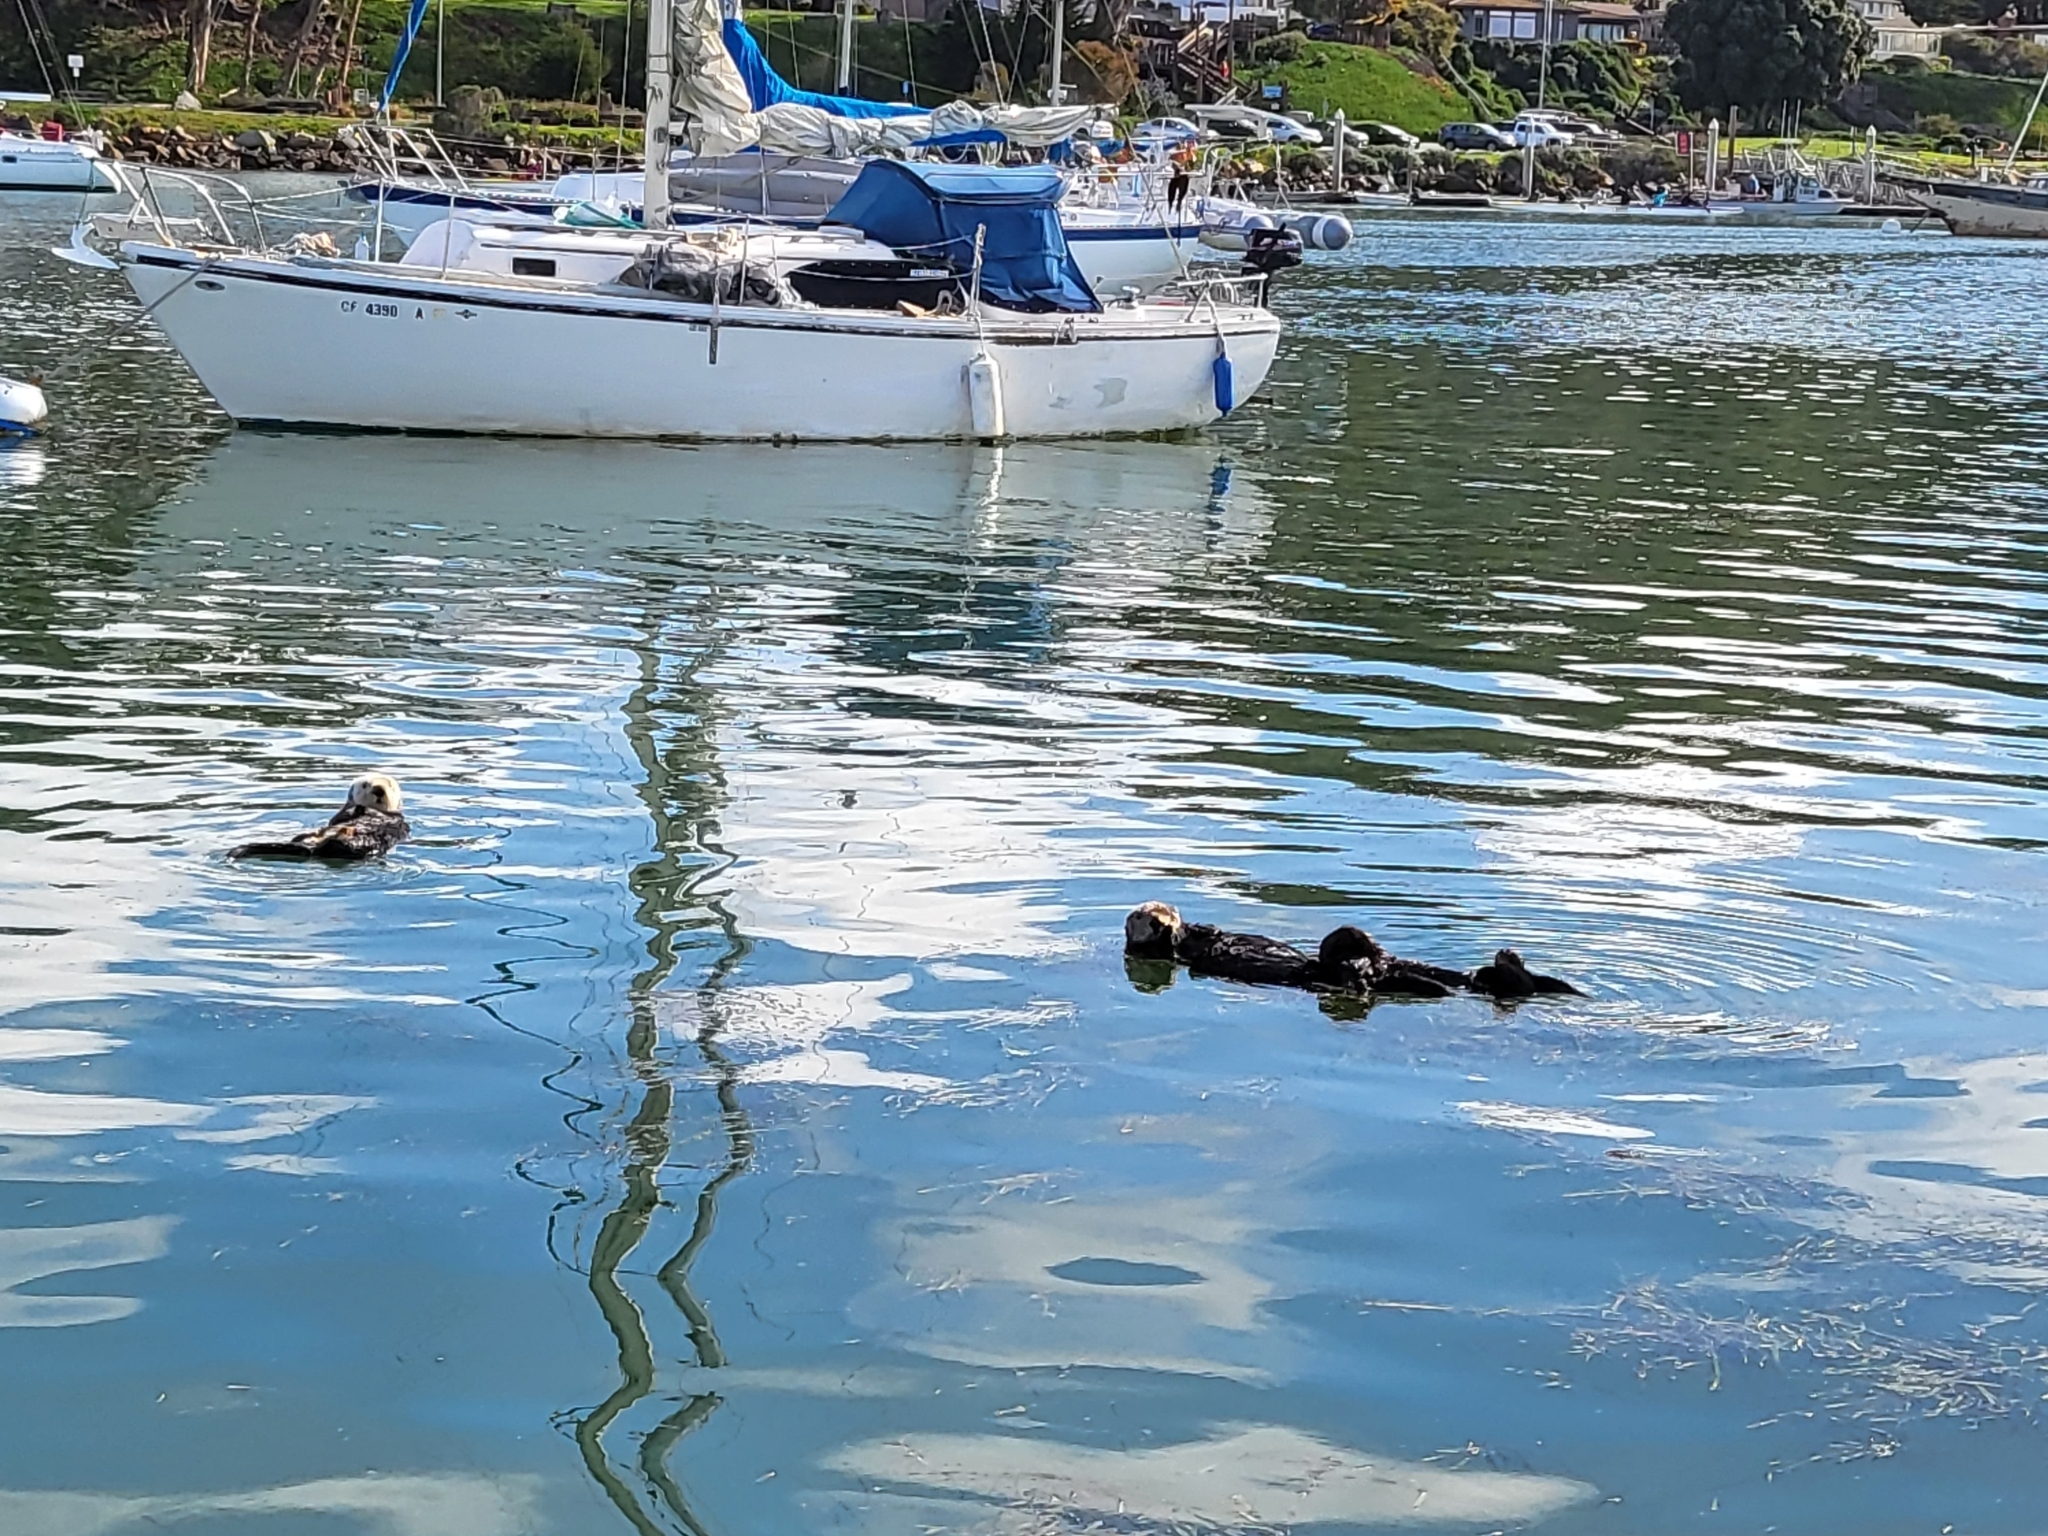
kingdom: Animalia
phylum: Chordata
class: Mammalia
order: Carnivora
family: Mustelidae
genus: Enhydra
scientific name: Enhydra lutris
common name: Sea otter
